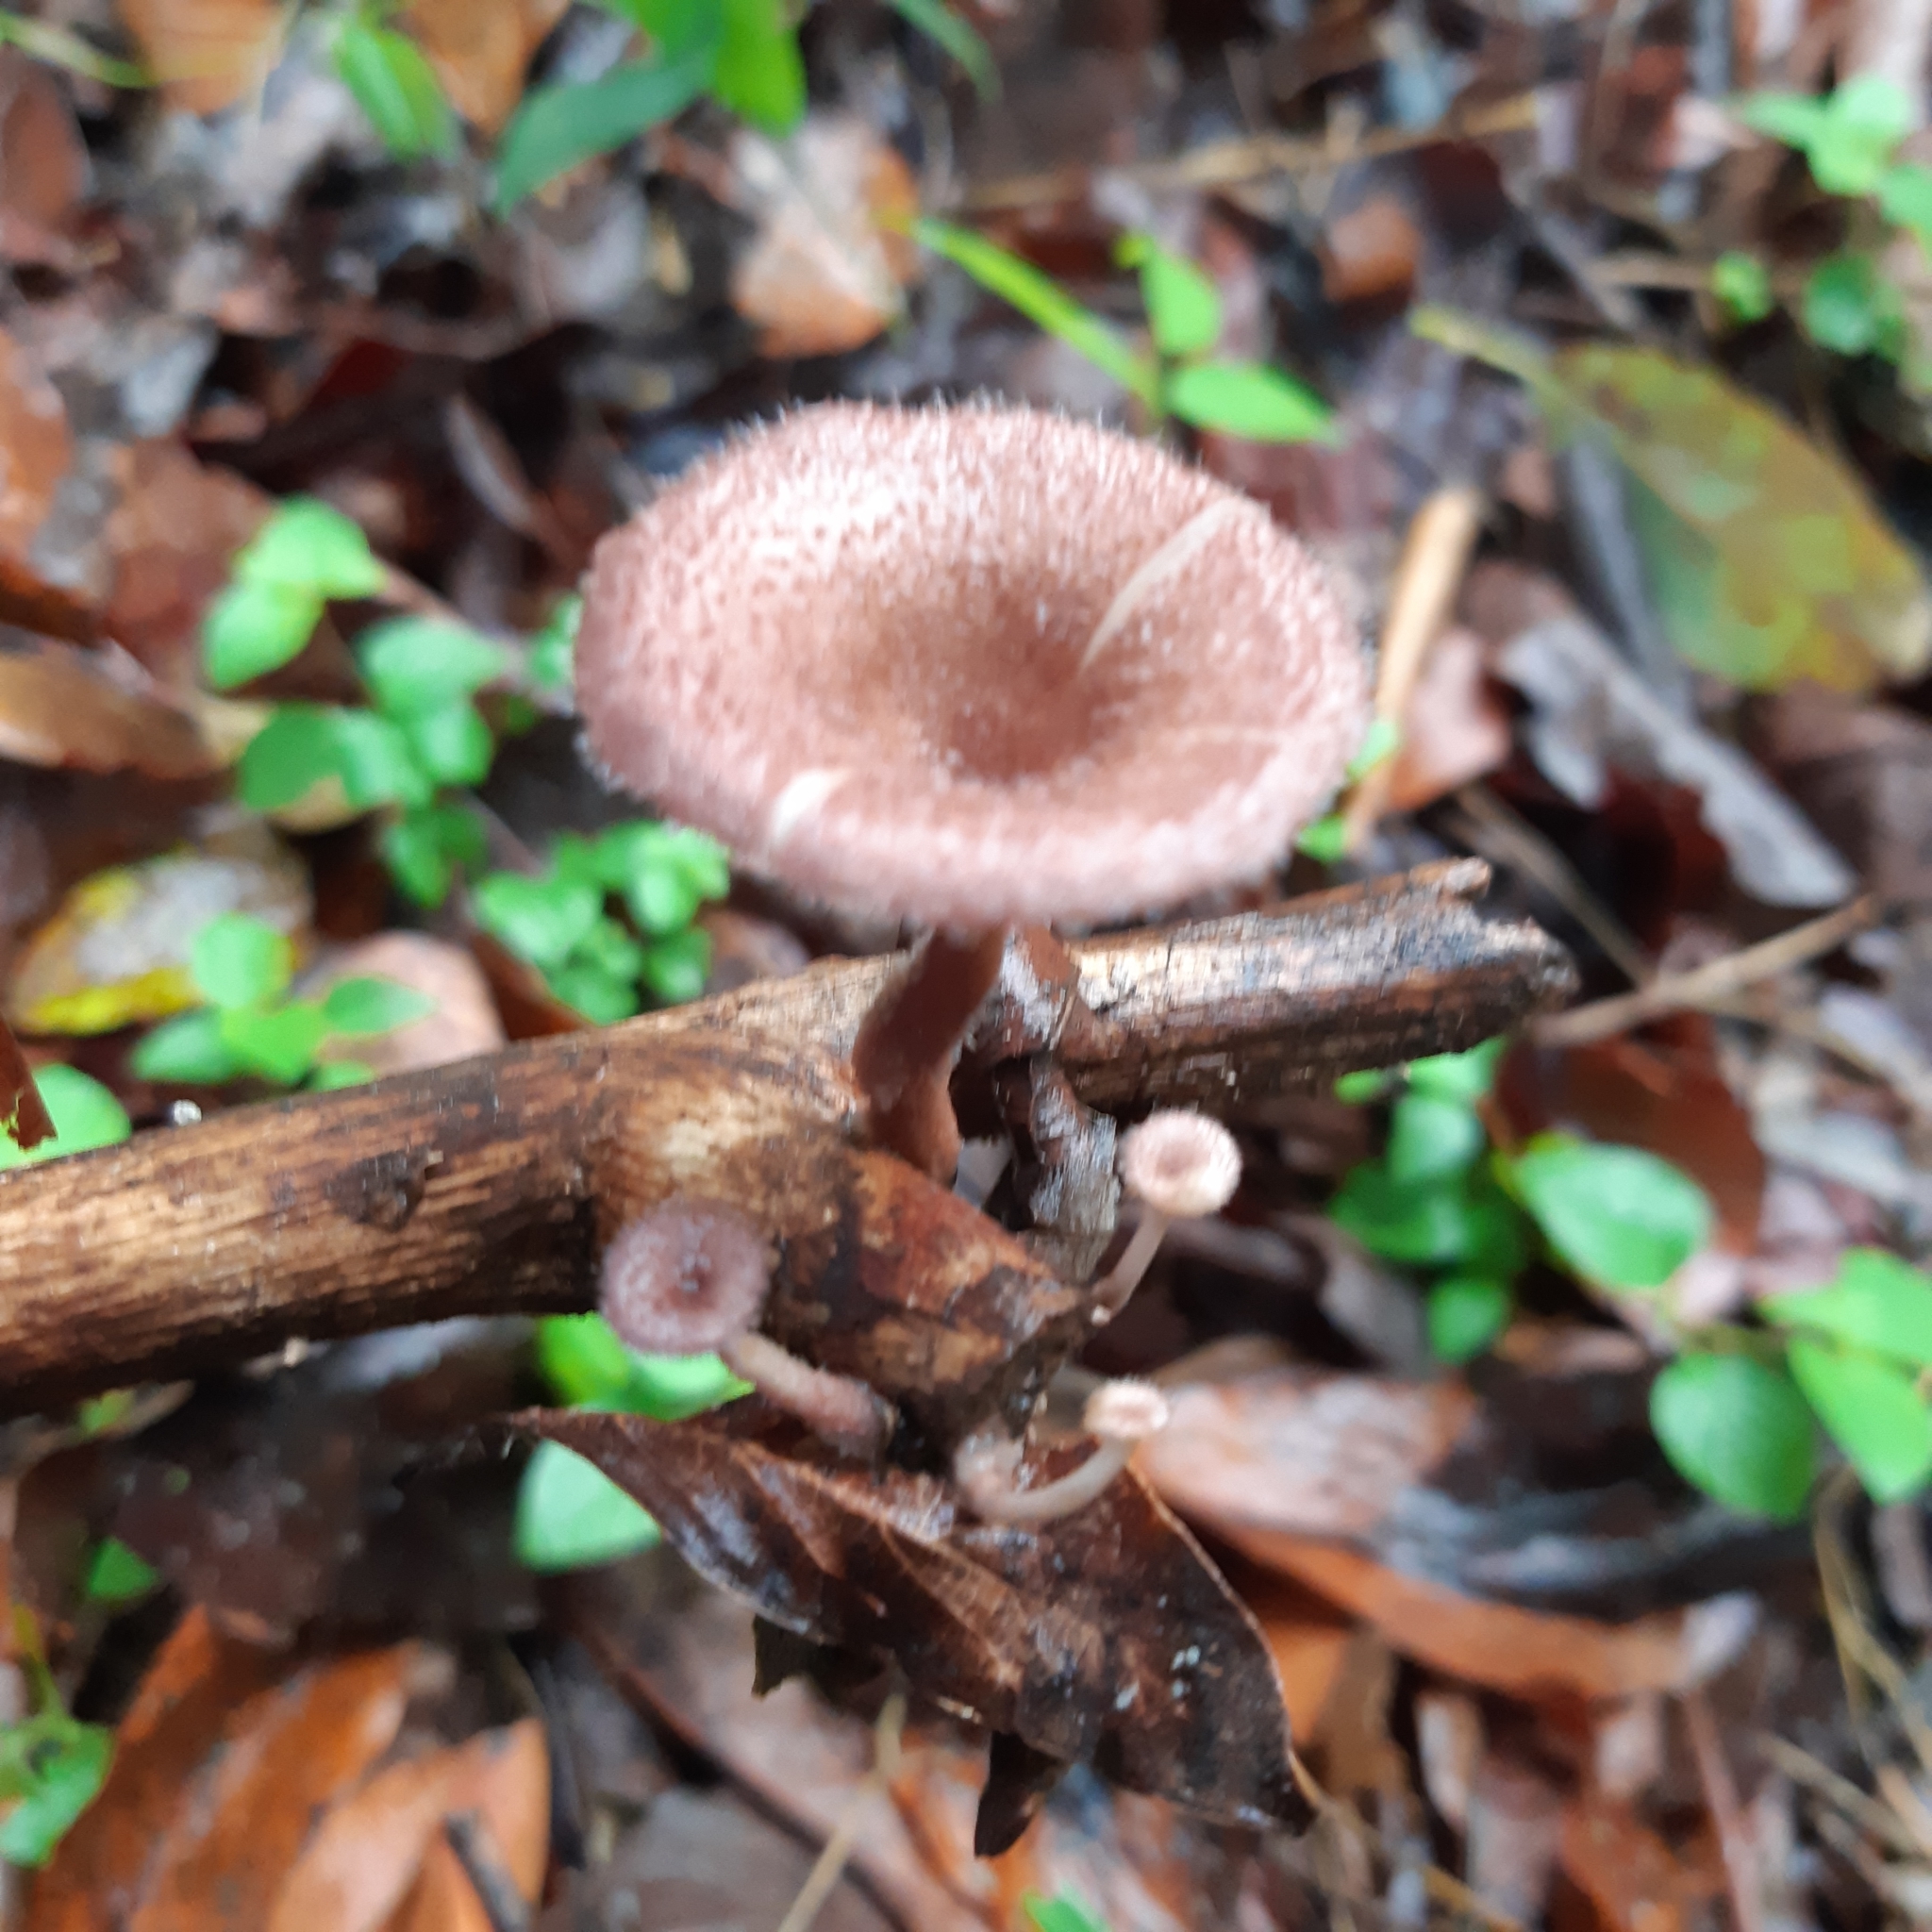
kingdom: Fungi
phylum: Basidiomycota
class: Agaricomycetes
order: Polyporales
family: Panaceae
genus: Panus
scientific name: Panus strigellus
